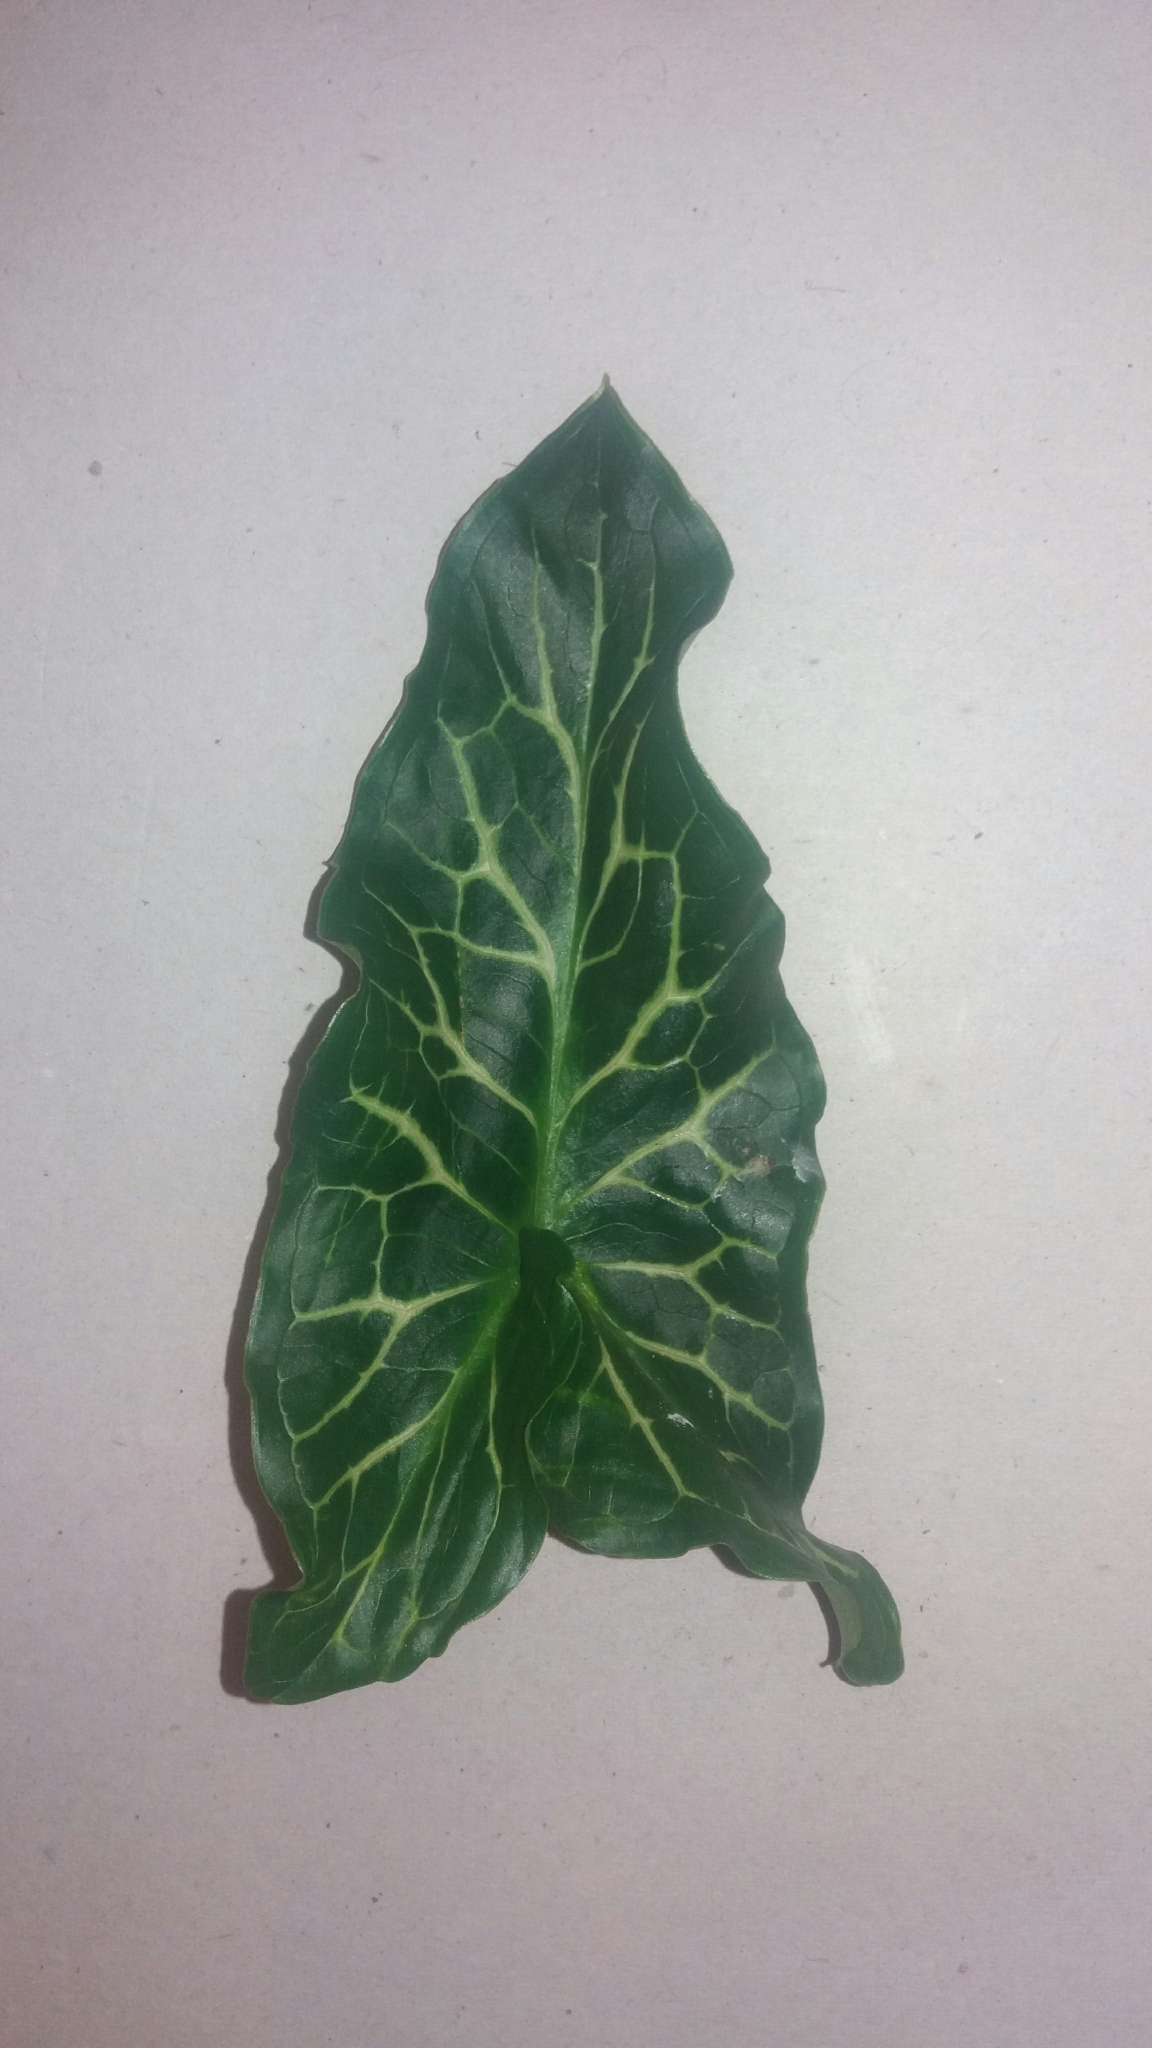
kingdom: Plantae
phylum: Tracheophyta
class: Liliopsida
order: Alismatales
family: Araceae
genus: Arum
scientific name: Arum italicum
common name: Italian lords-and-ladies
